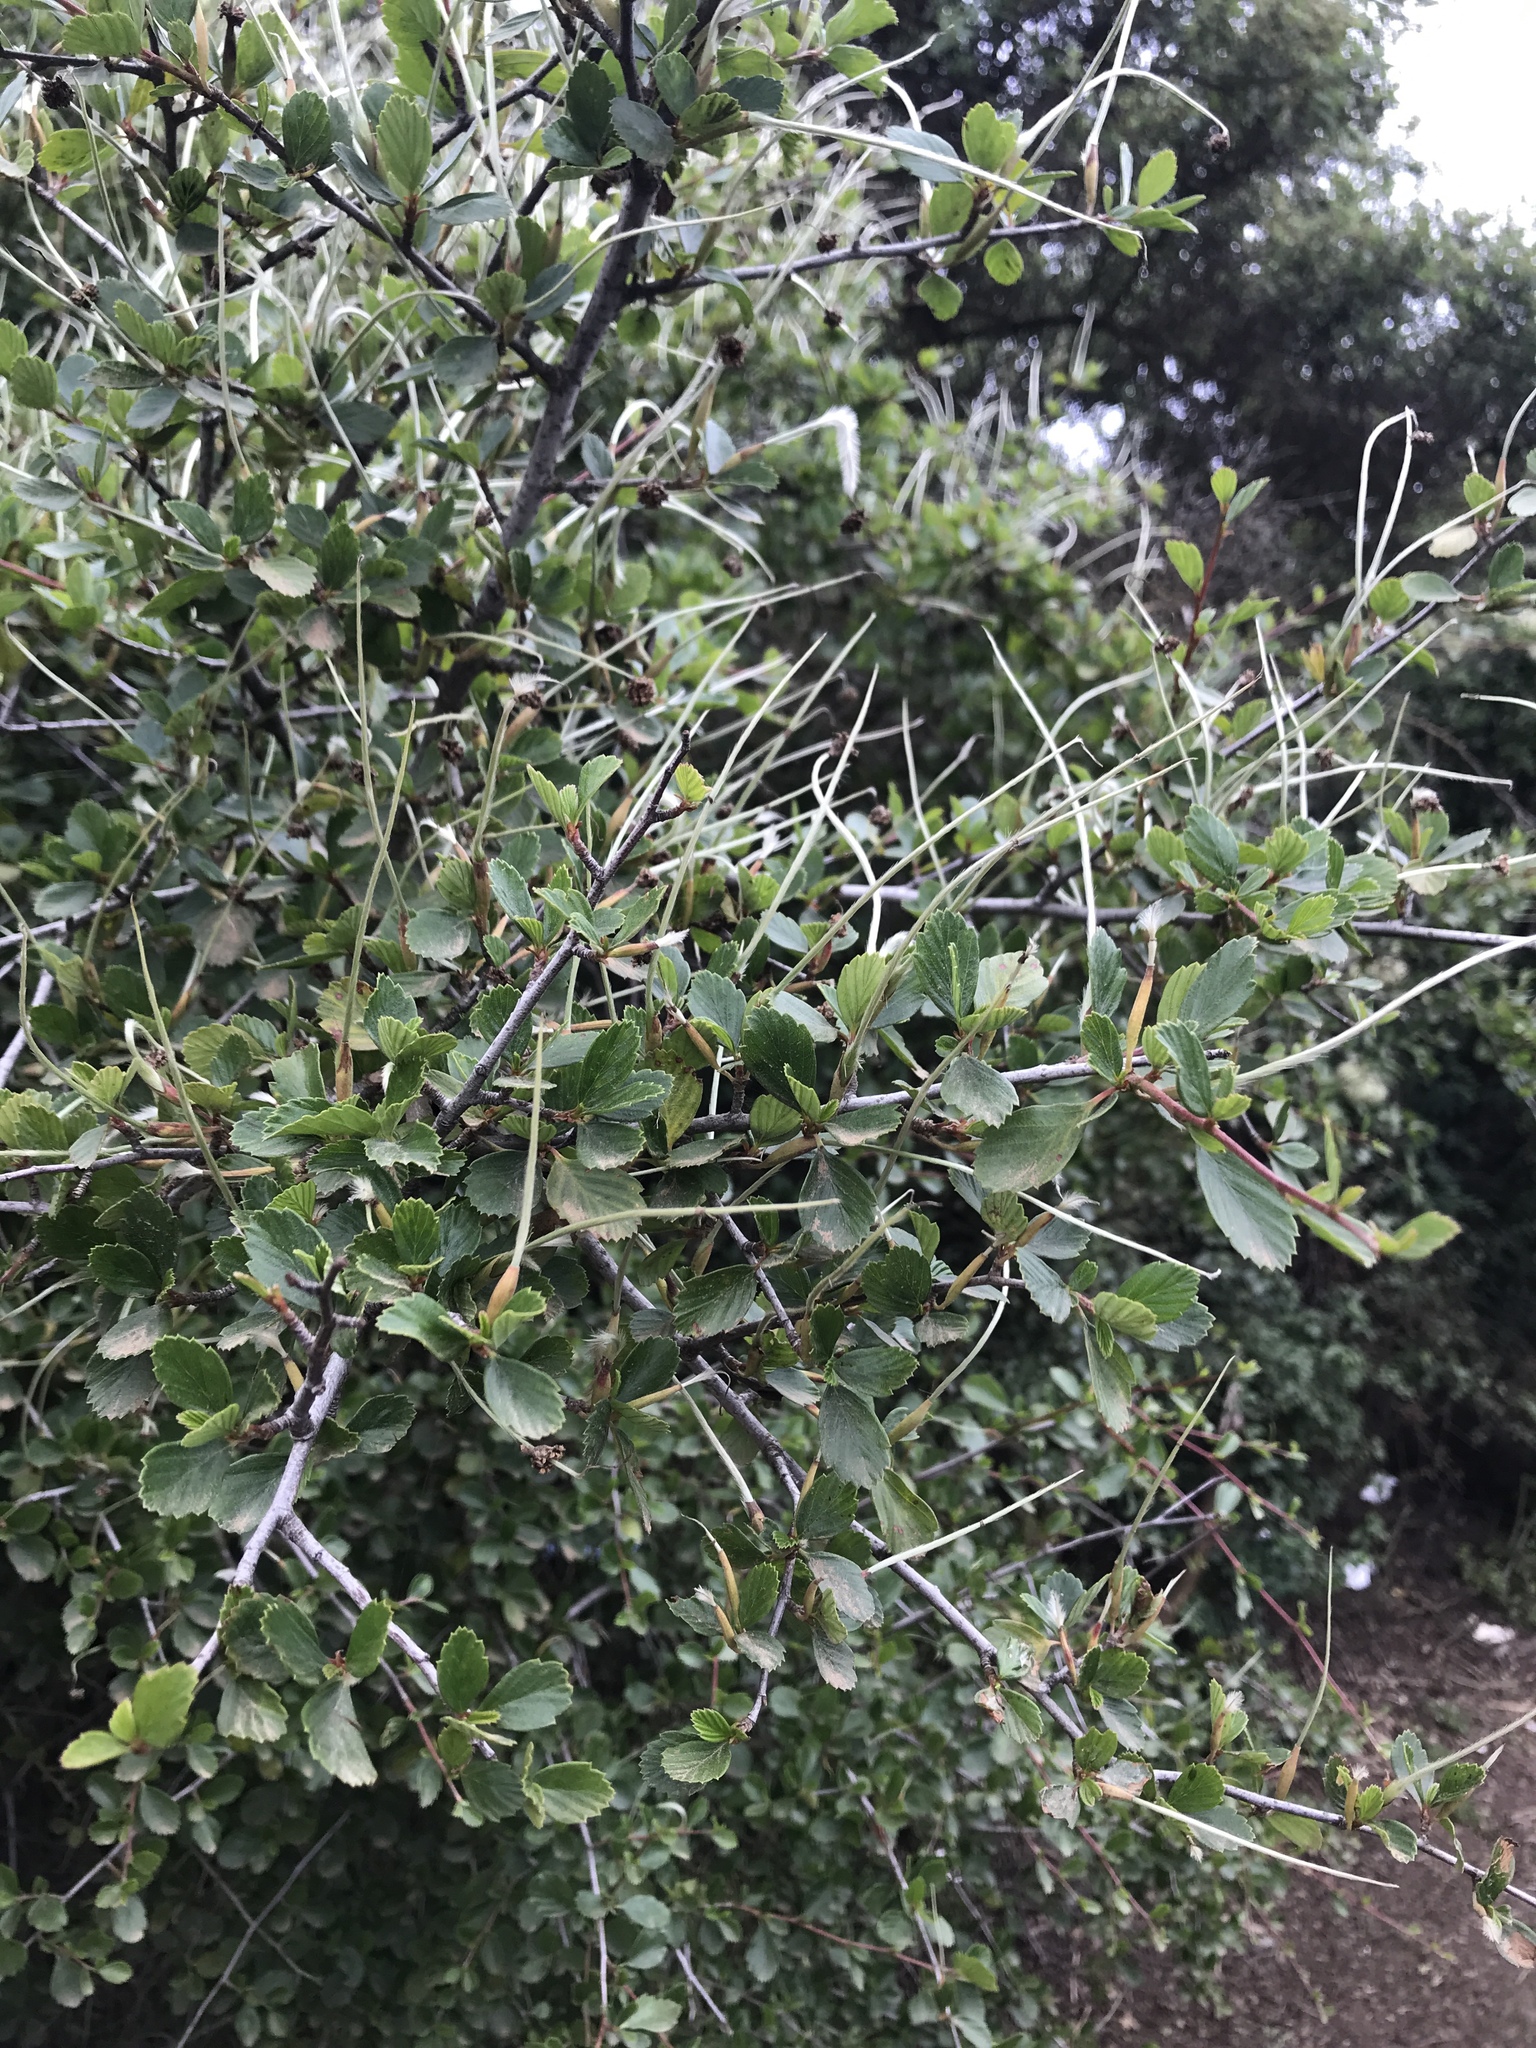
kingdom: Plantae
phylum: Tracheophyta
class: Magnoliopsida
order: Rosales
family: Rosaceae
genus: Cercocarpus
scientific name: Cercocarpus betuloides
